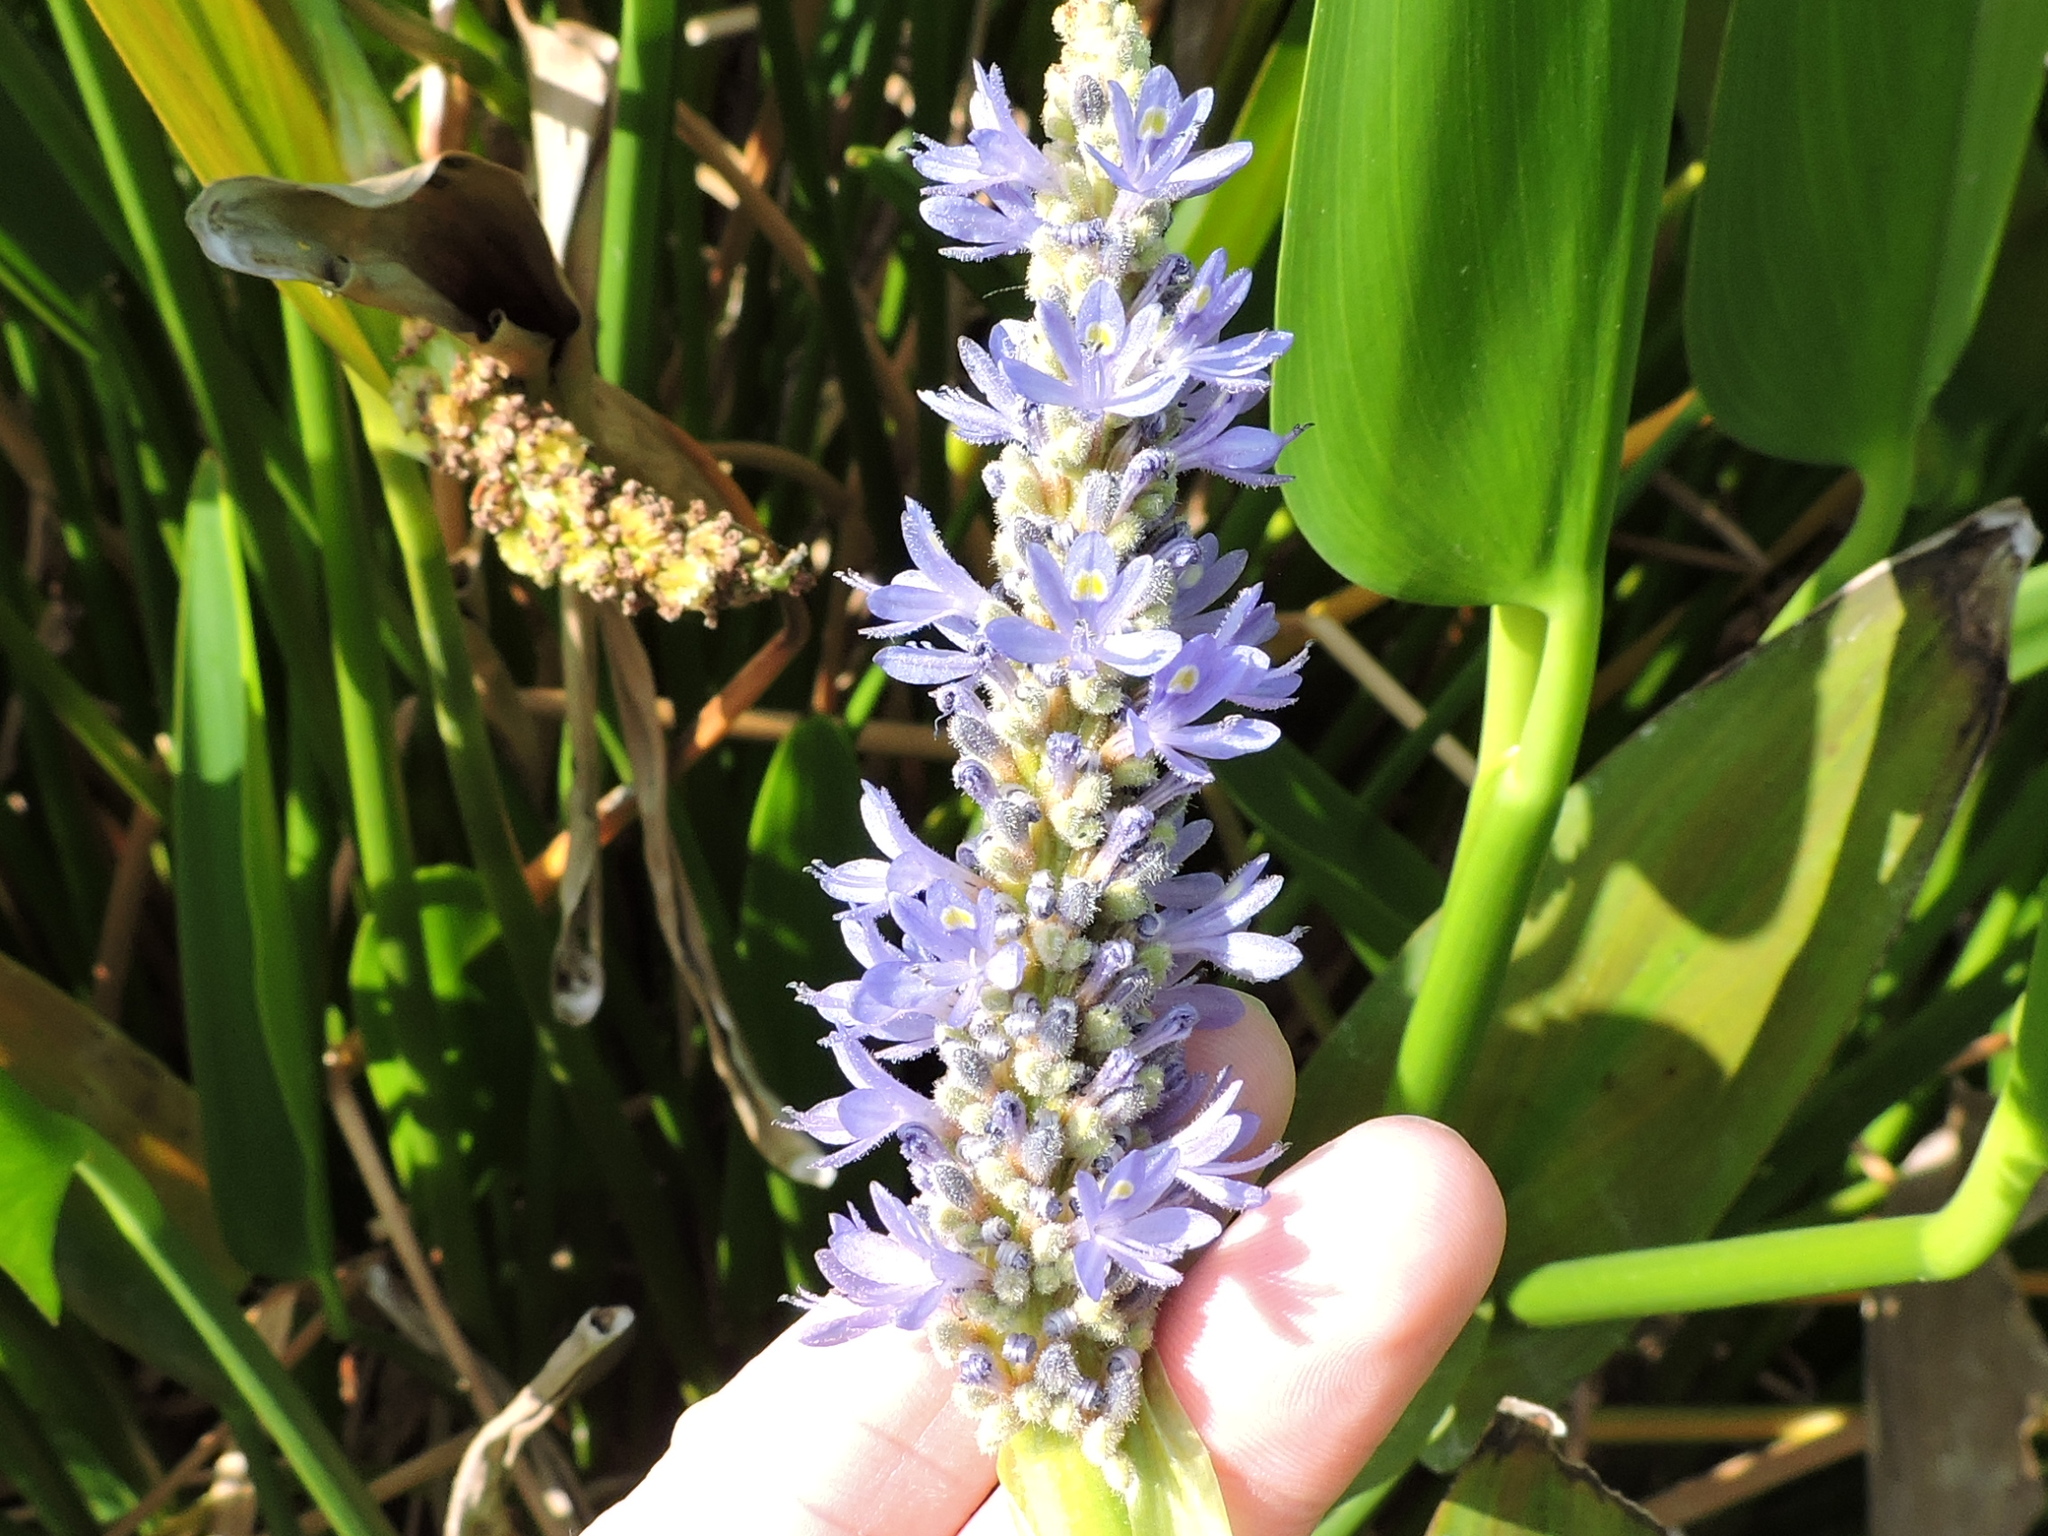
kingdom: Plantae
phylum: Tracheophyta
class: Liliopsida
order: Commelinales
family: Pontederiaceae
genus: Pontederia
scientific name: Pontederia cordata
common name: Pickerelweed
